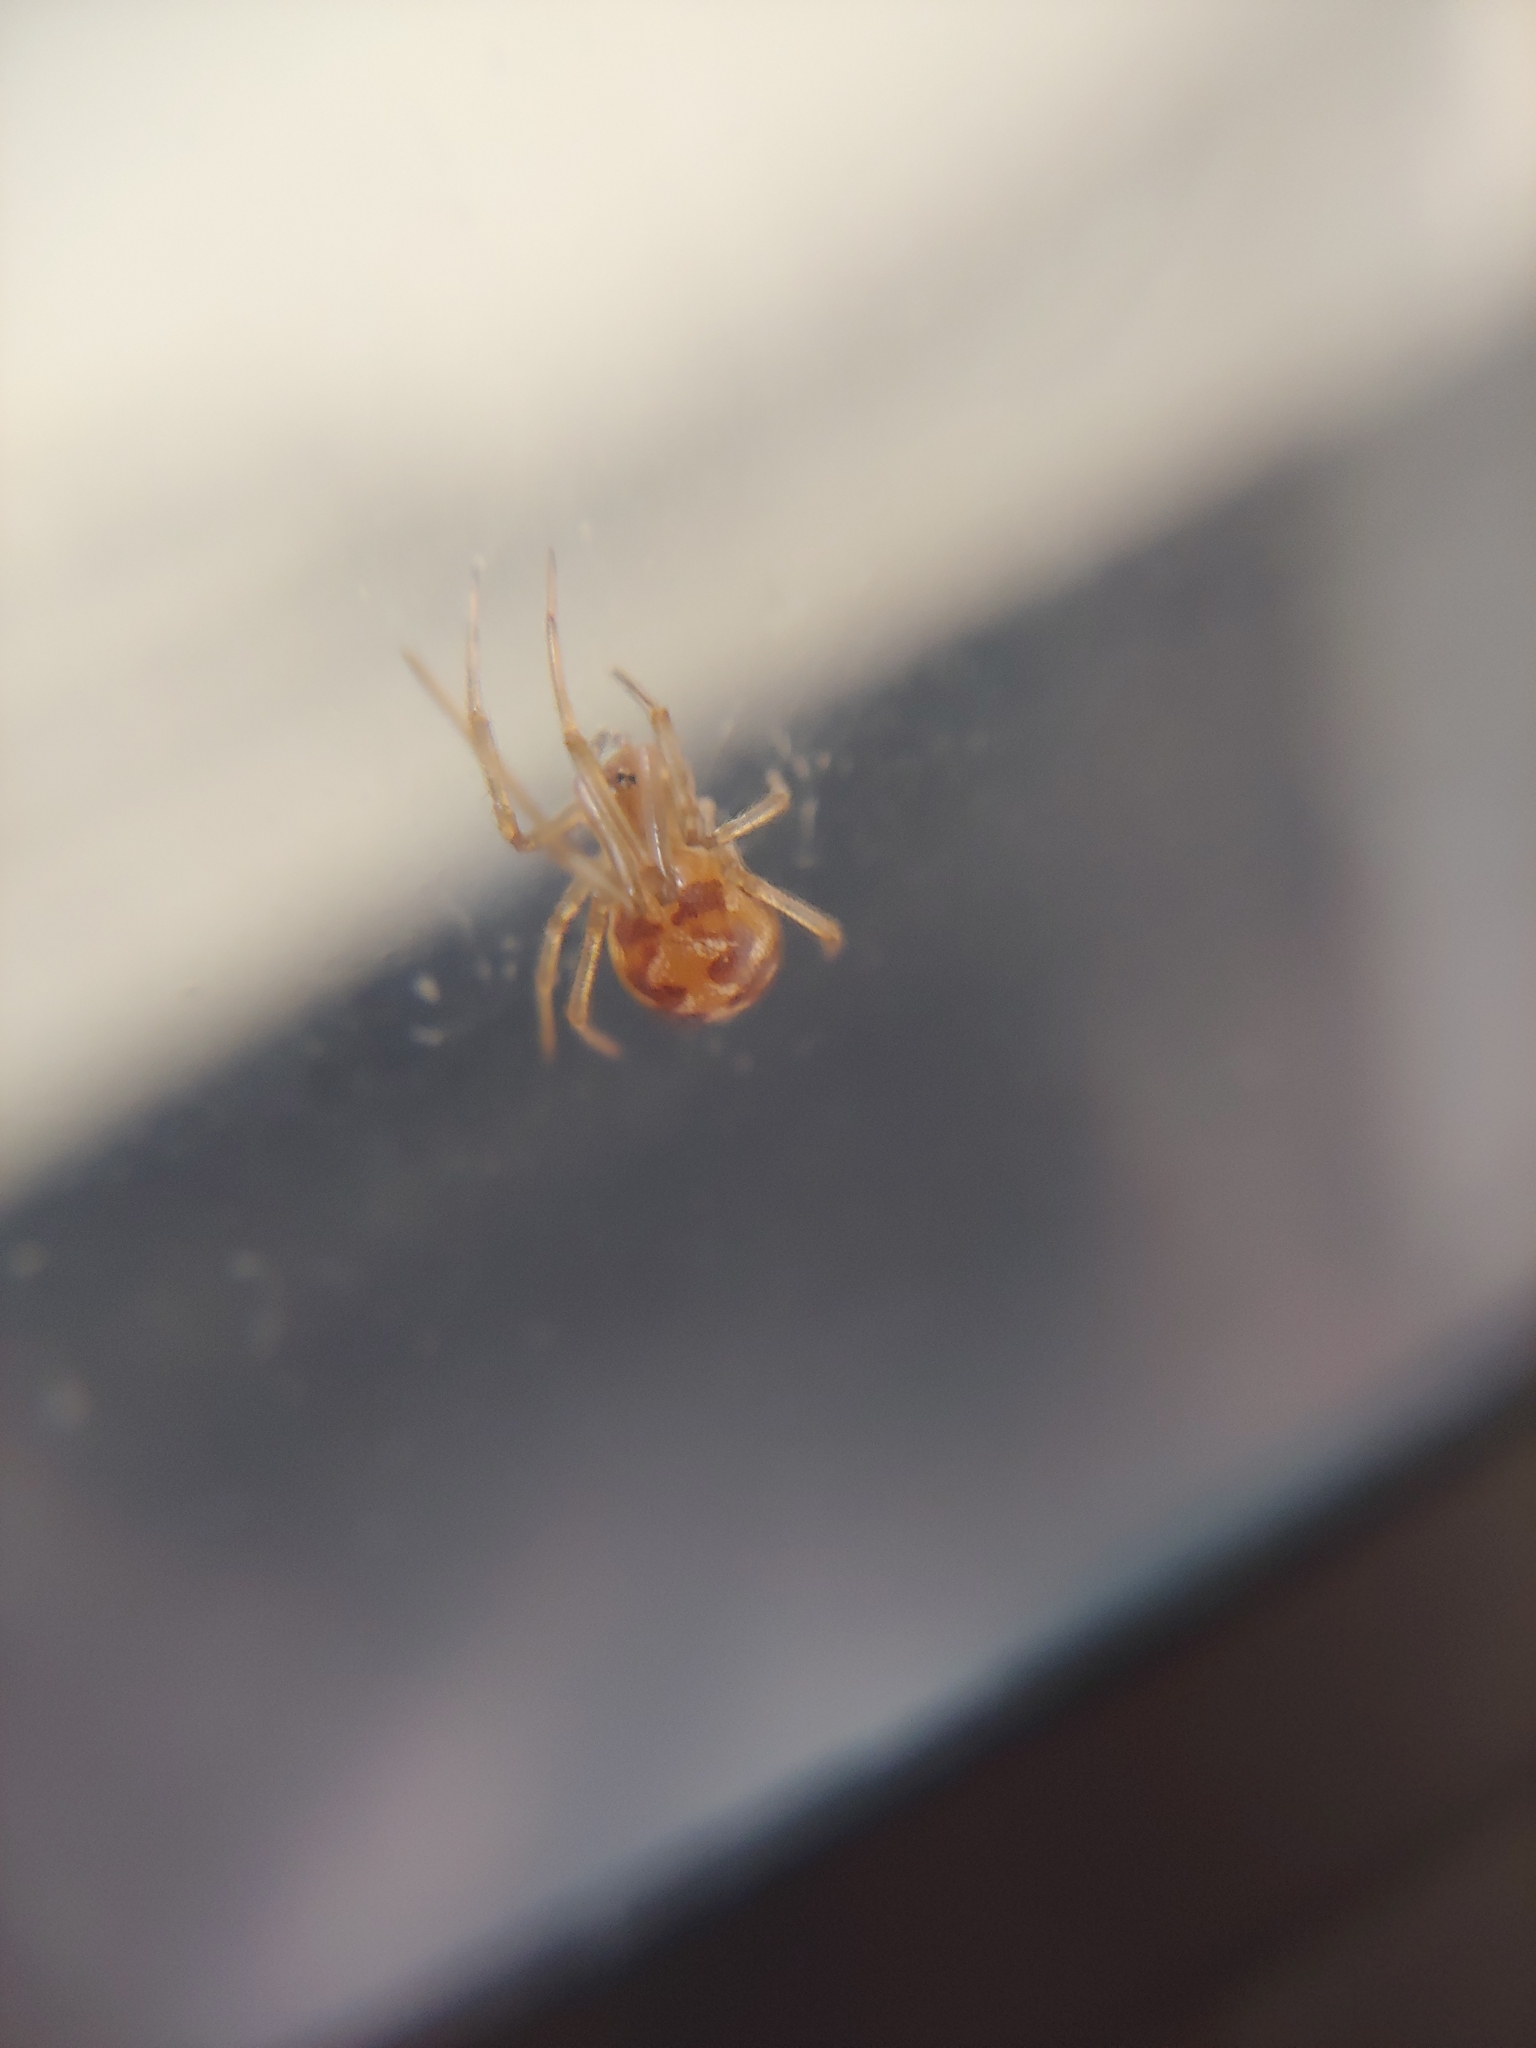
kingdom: Animalia
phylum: Arthropoda
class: Arachnida
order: Araneae
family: Theridiidae
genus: Steatoda
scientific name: Steatoda triangulosa
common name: Triangulate bud spider
